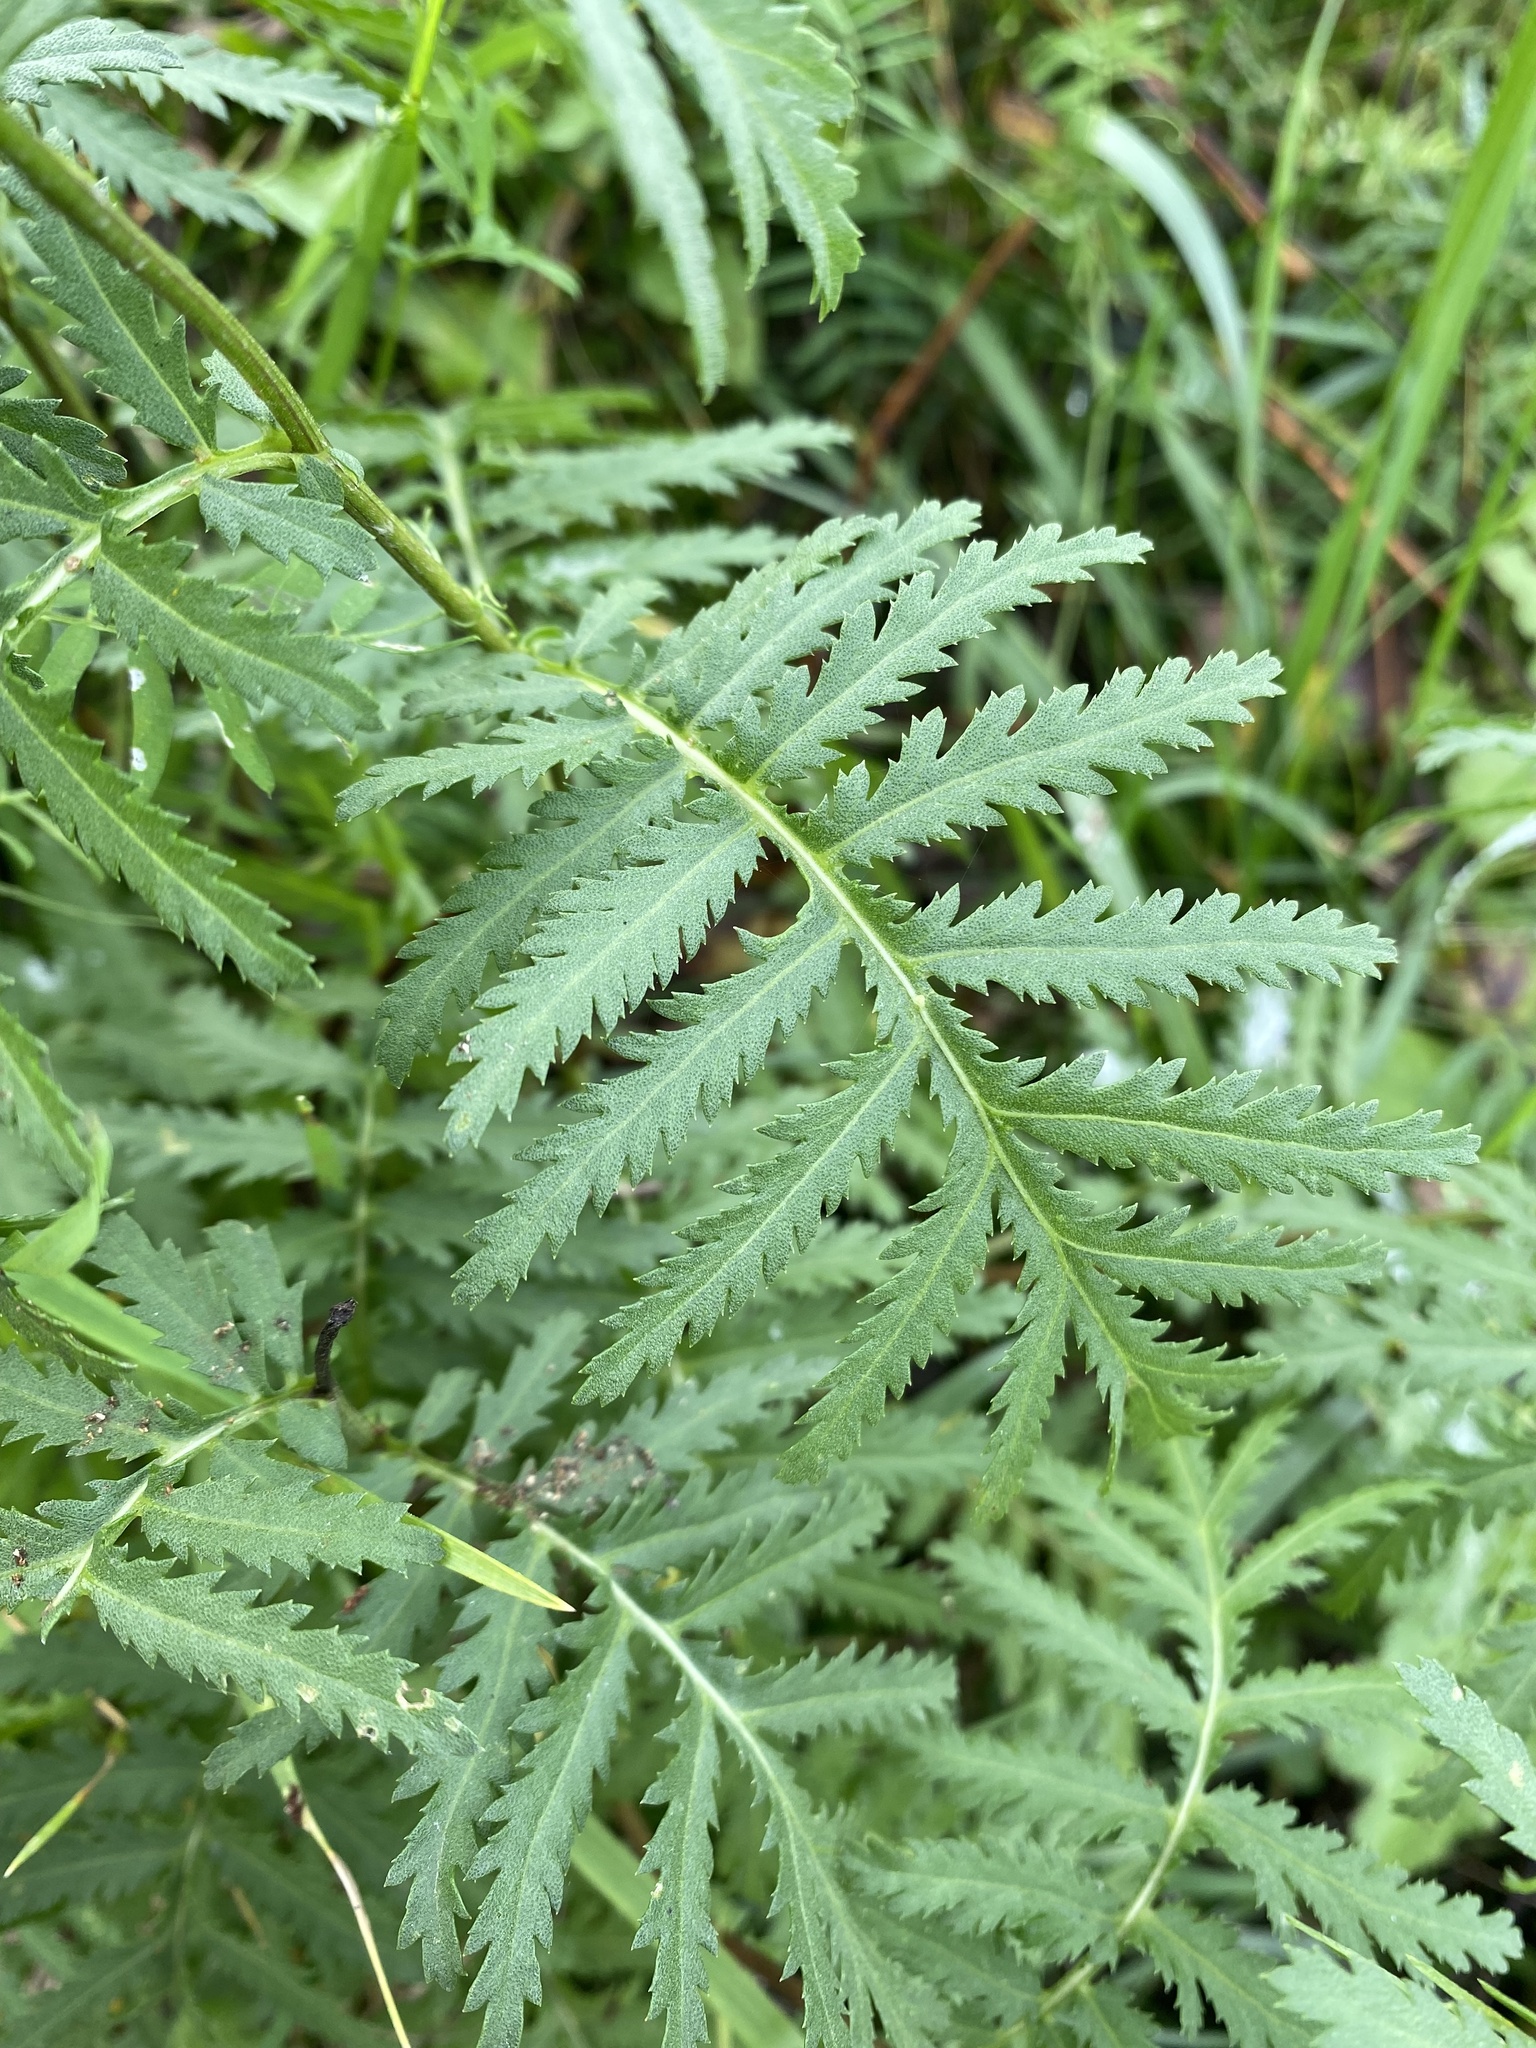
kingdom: Plantae
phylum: Tracheophyta
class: Magnoliopsida
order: Asterales
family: Asteraceae
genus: Tanacetum
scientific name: Tanacetum vulgare
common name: Common tansy
